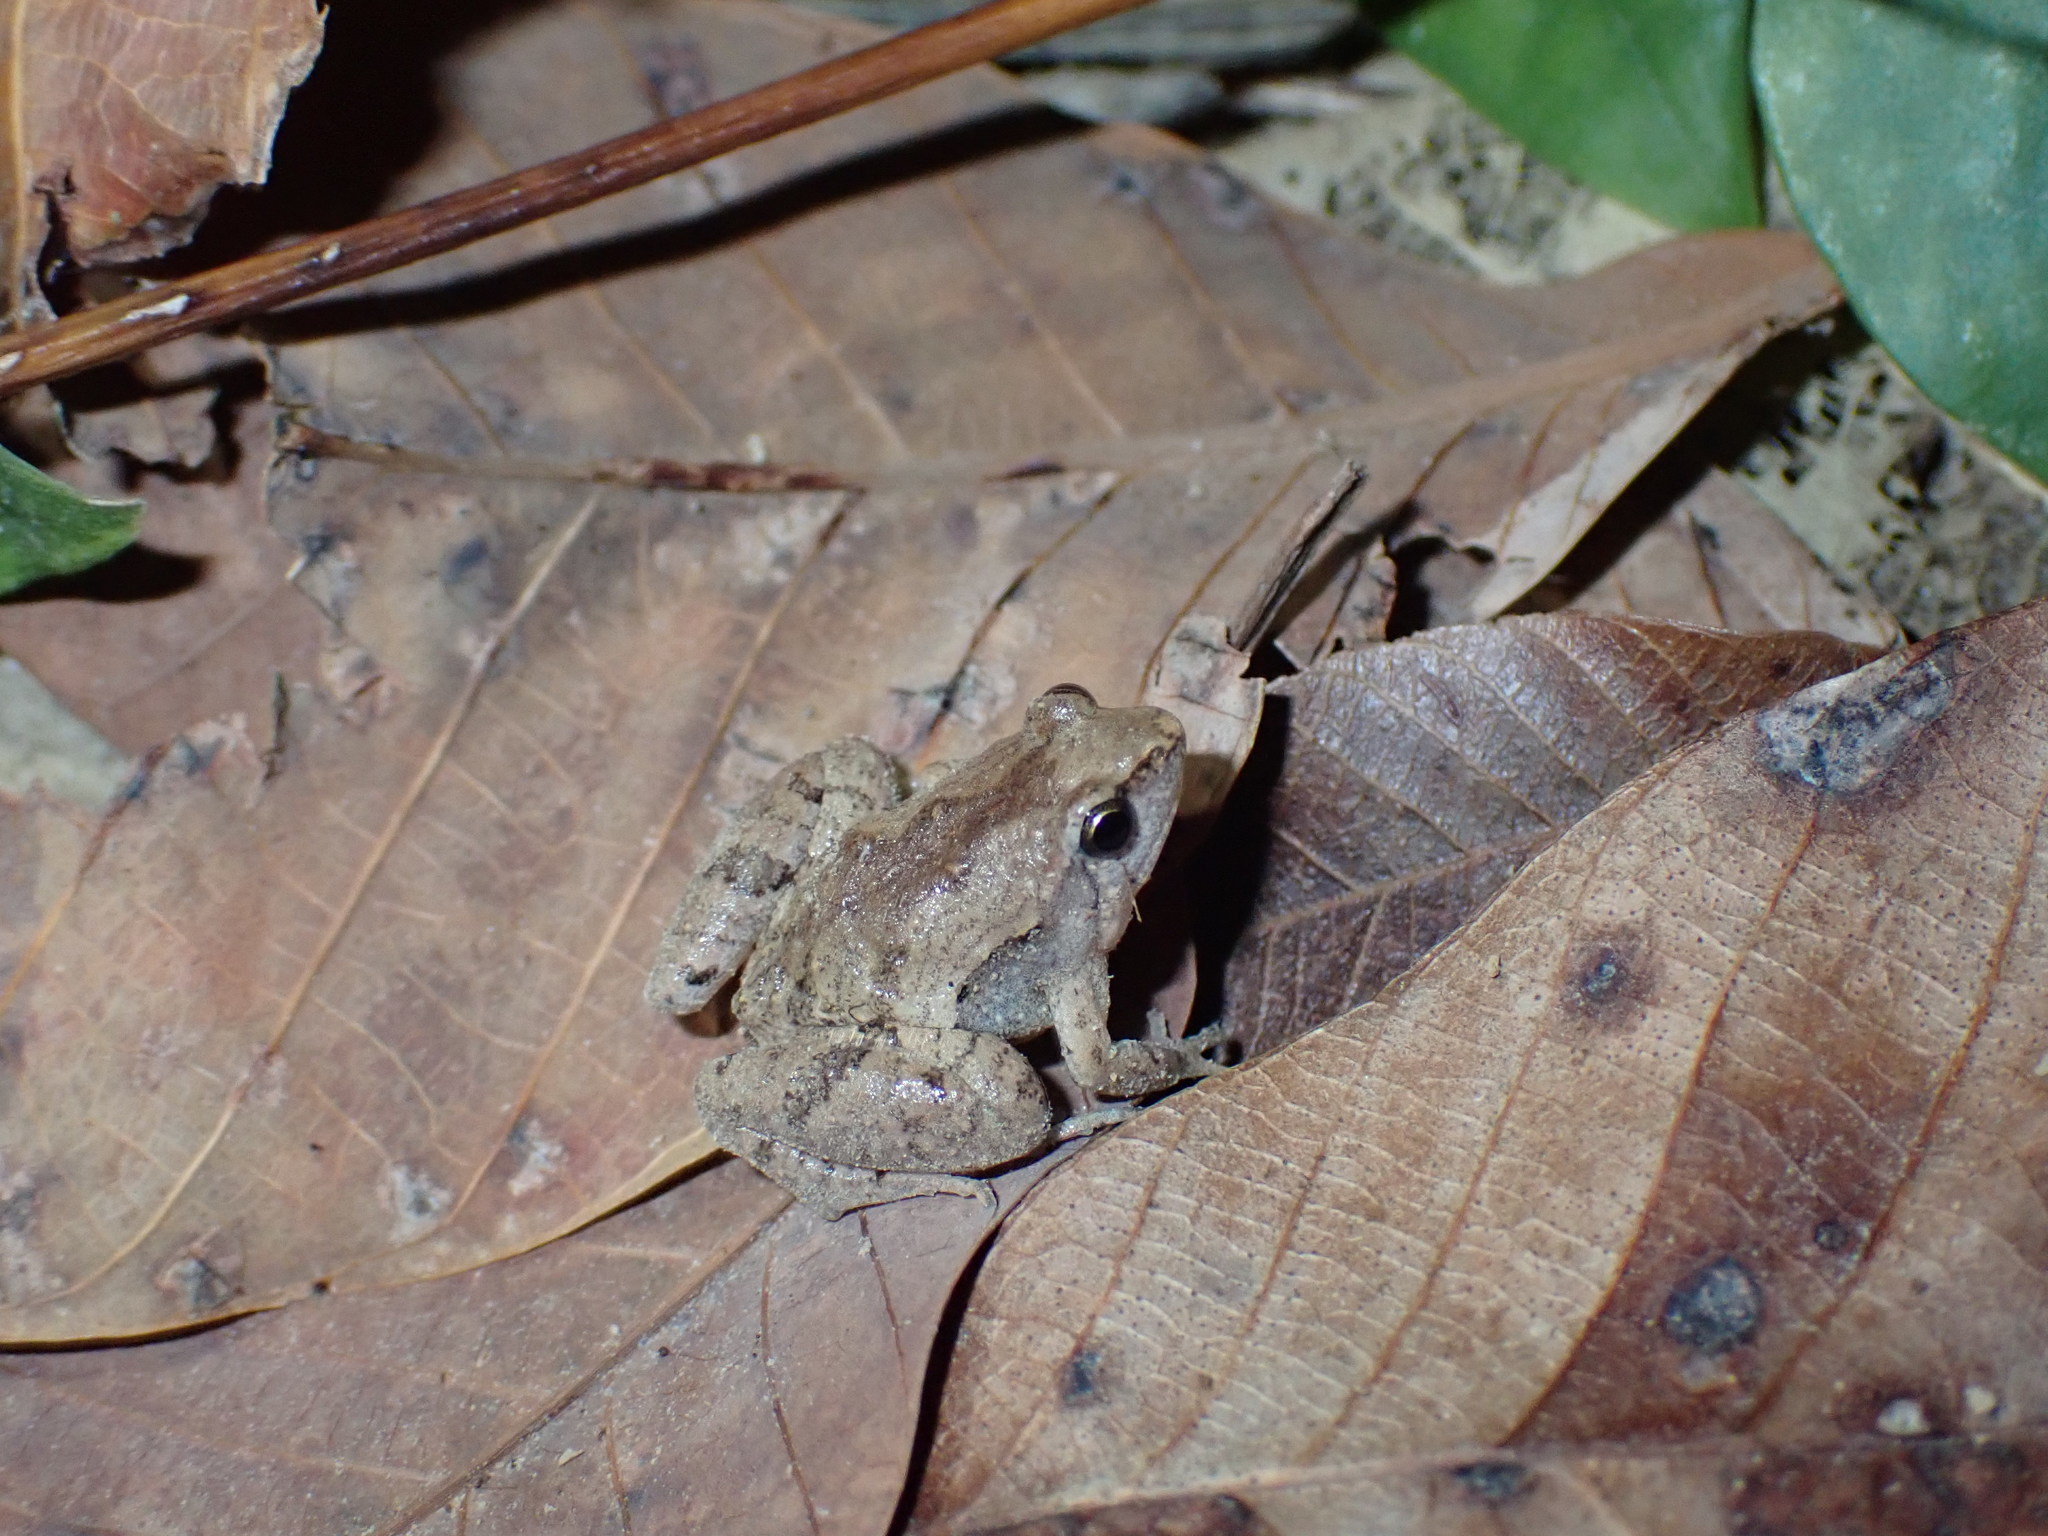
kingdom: Animalia
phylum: Chordata
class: Amphibia
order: Anura
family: Microhylidae
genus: Microhyla
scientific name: Microhyla mukhlesuri
